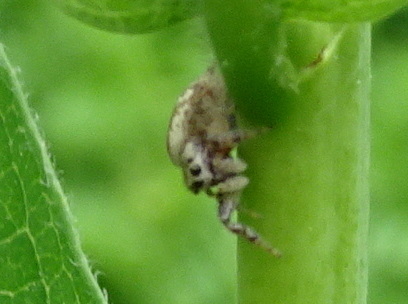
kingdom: Animalia
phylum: Arthropoda
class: Arachnida
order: Araneae
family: Salticidae
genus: Pelegrina
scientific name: Pelegrina proterva
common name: Common white-cheeked jumping spider
